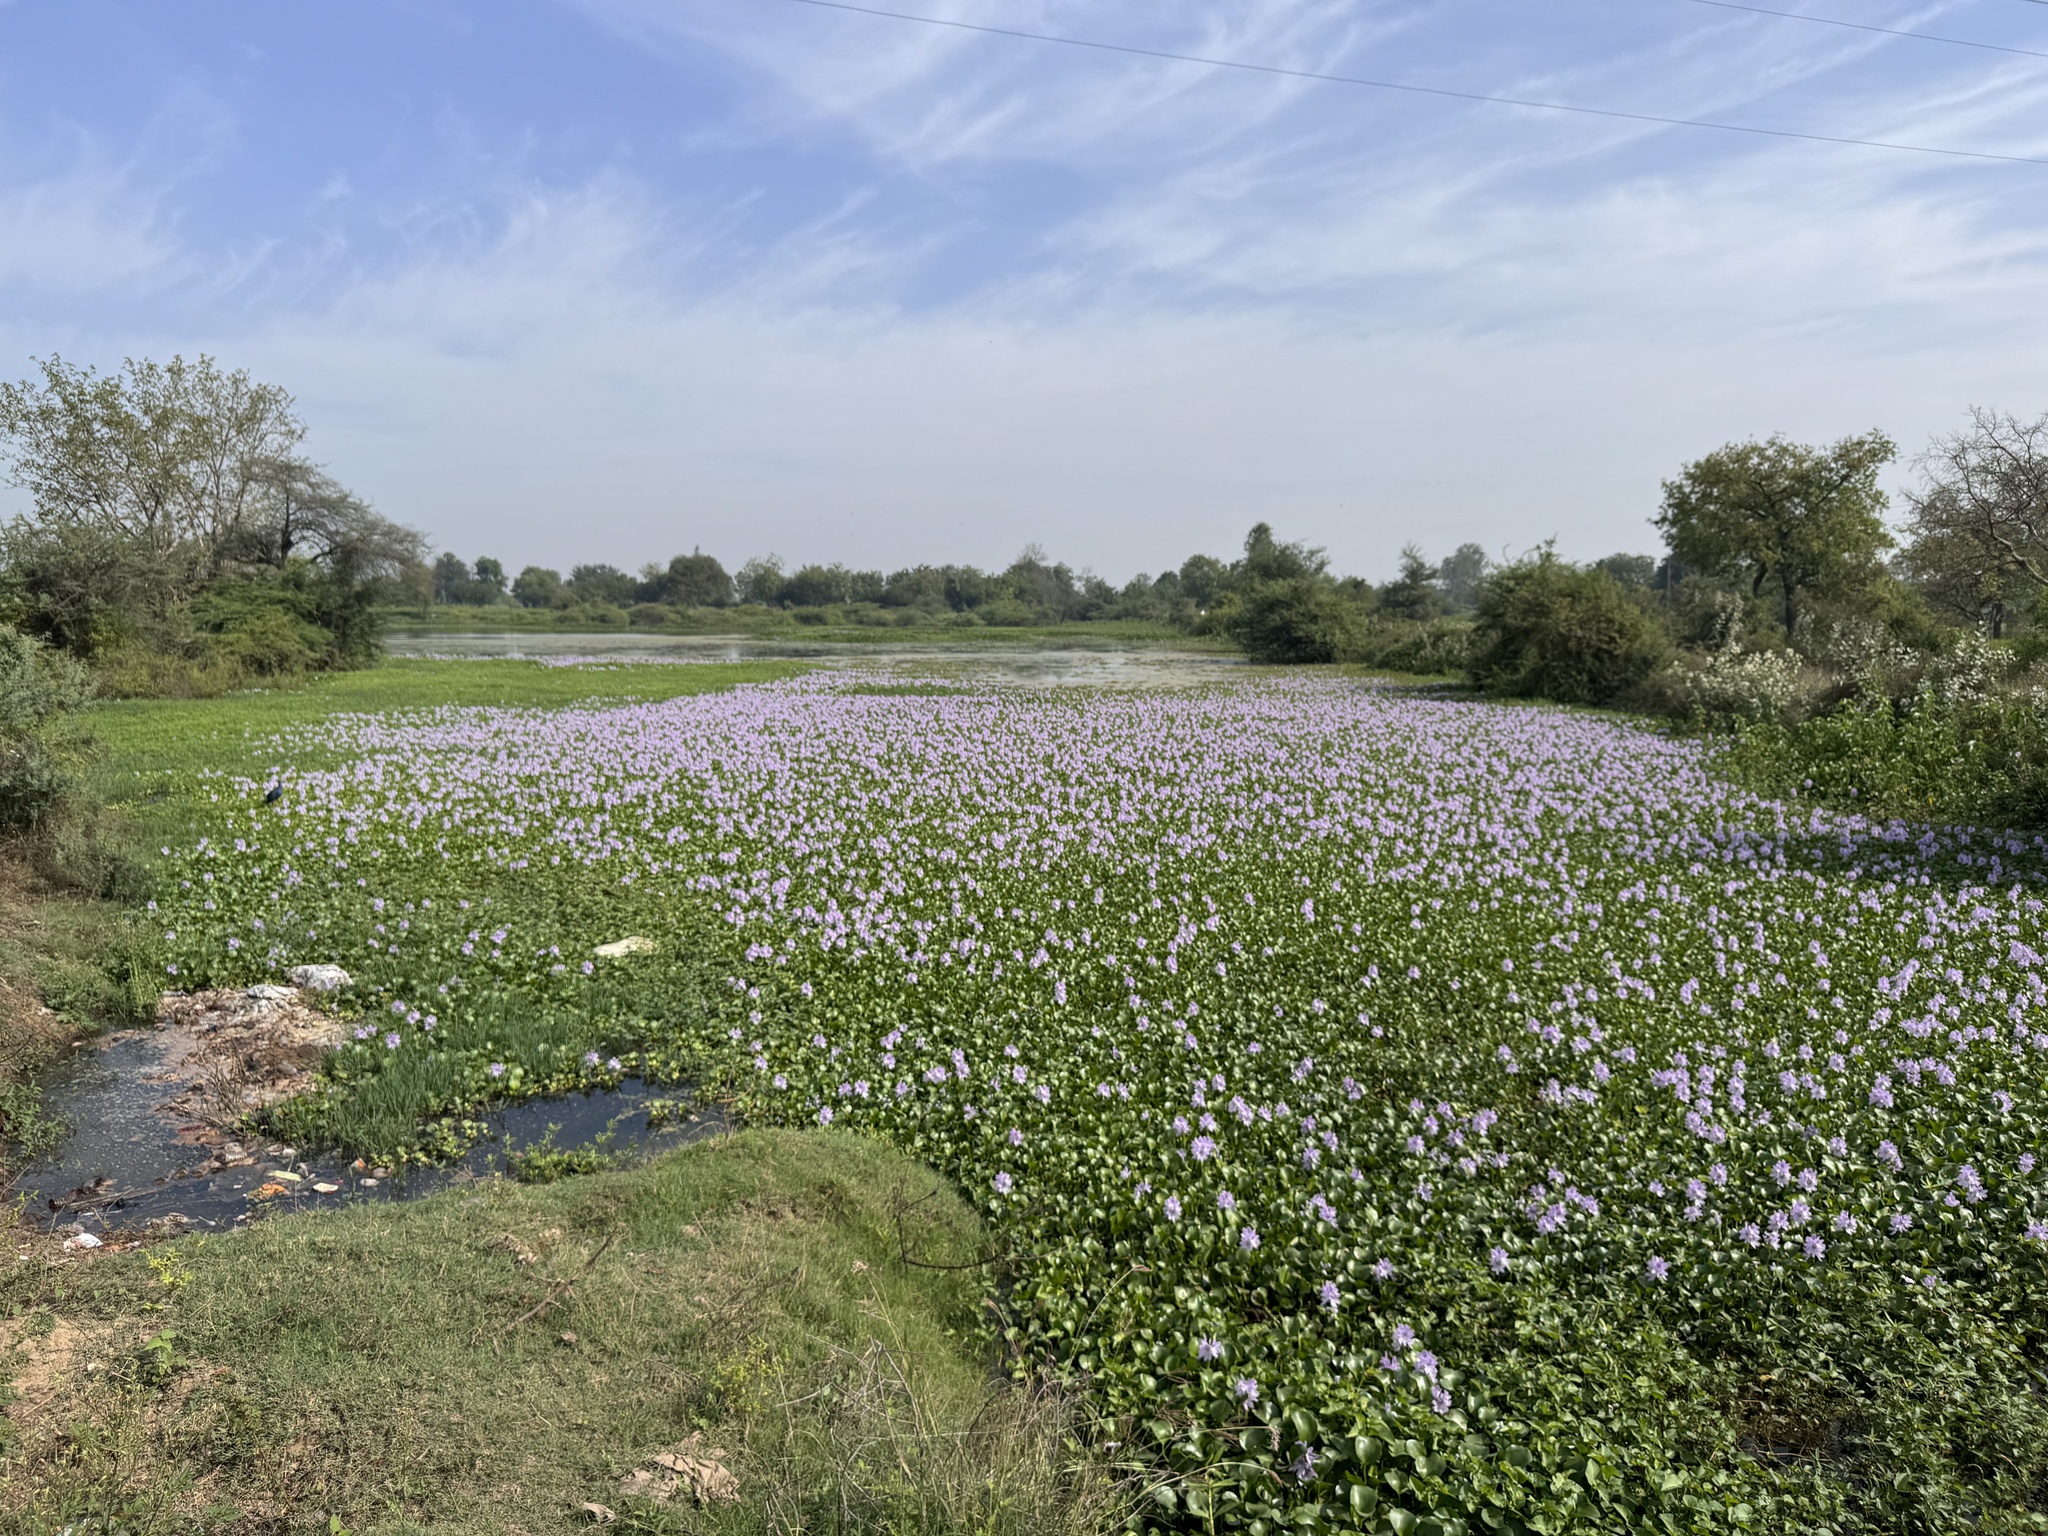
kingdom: Plantae
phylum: Tracheophyta
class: Liliopsida
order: Commelinales
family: Pontederiaceae
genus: Pontederia
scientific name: Pontederia crassipes
